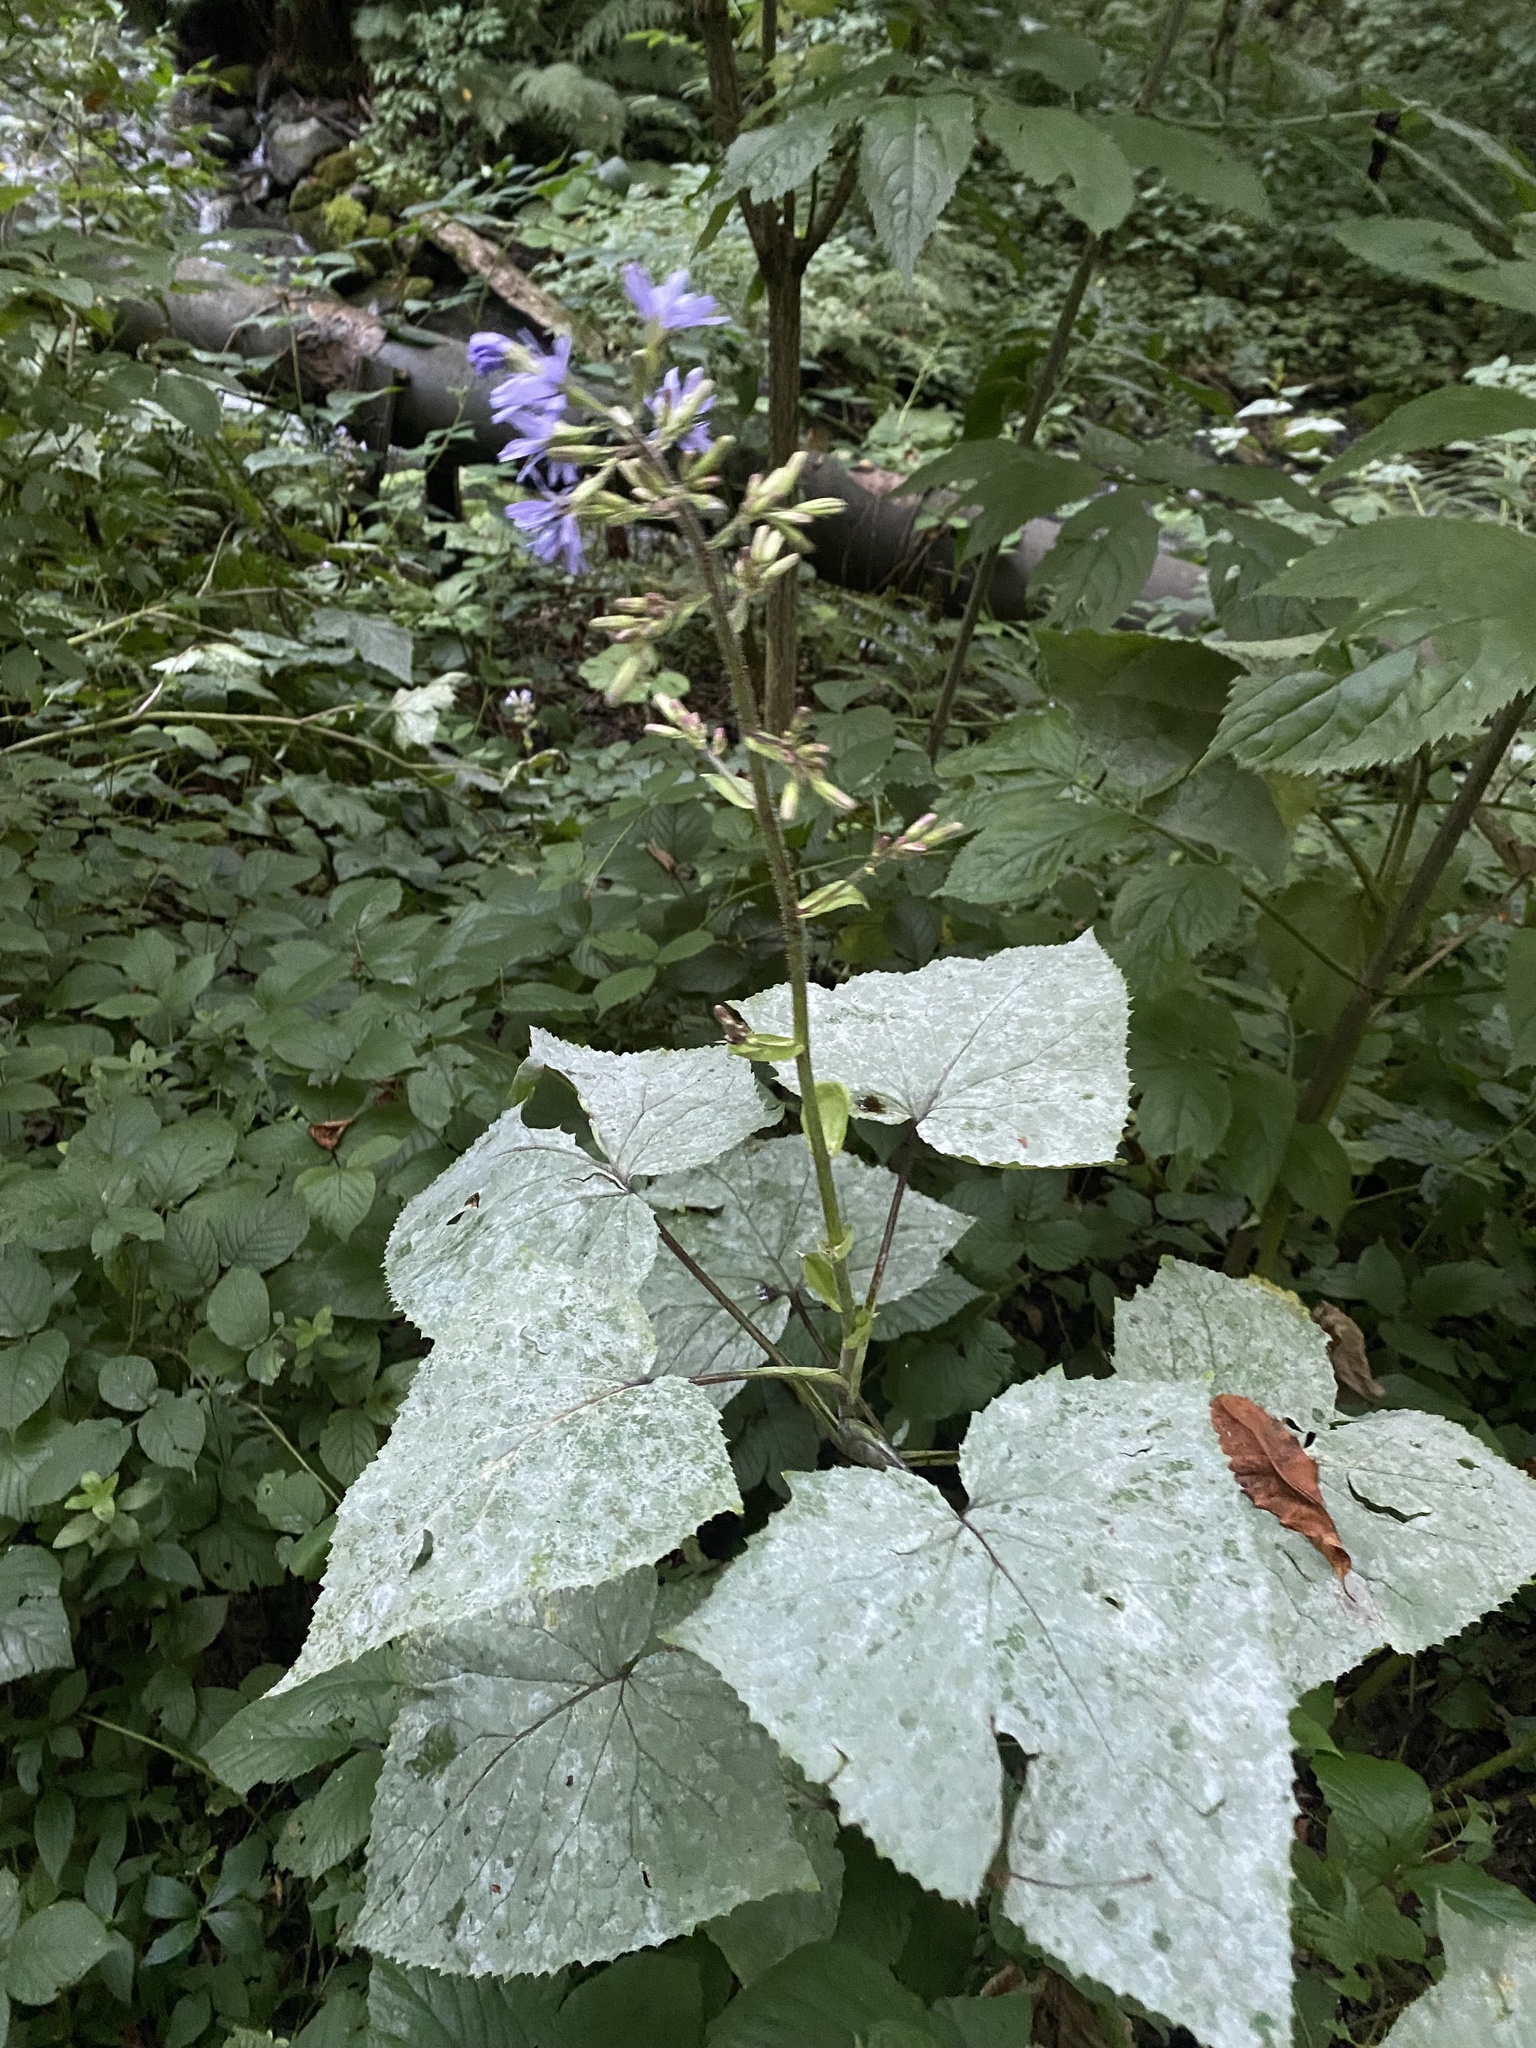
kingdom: Plantae
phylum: Tracheophyta
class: Magnoliopsida
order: Asterales
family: Asteraceae
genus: Cicerbita
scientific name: Cicerbita petiolata
